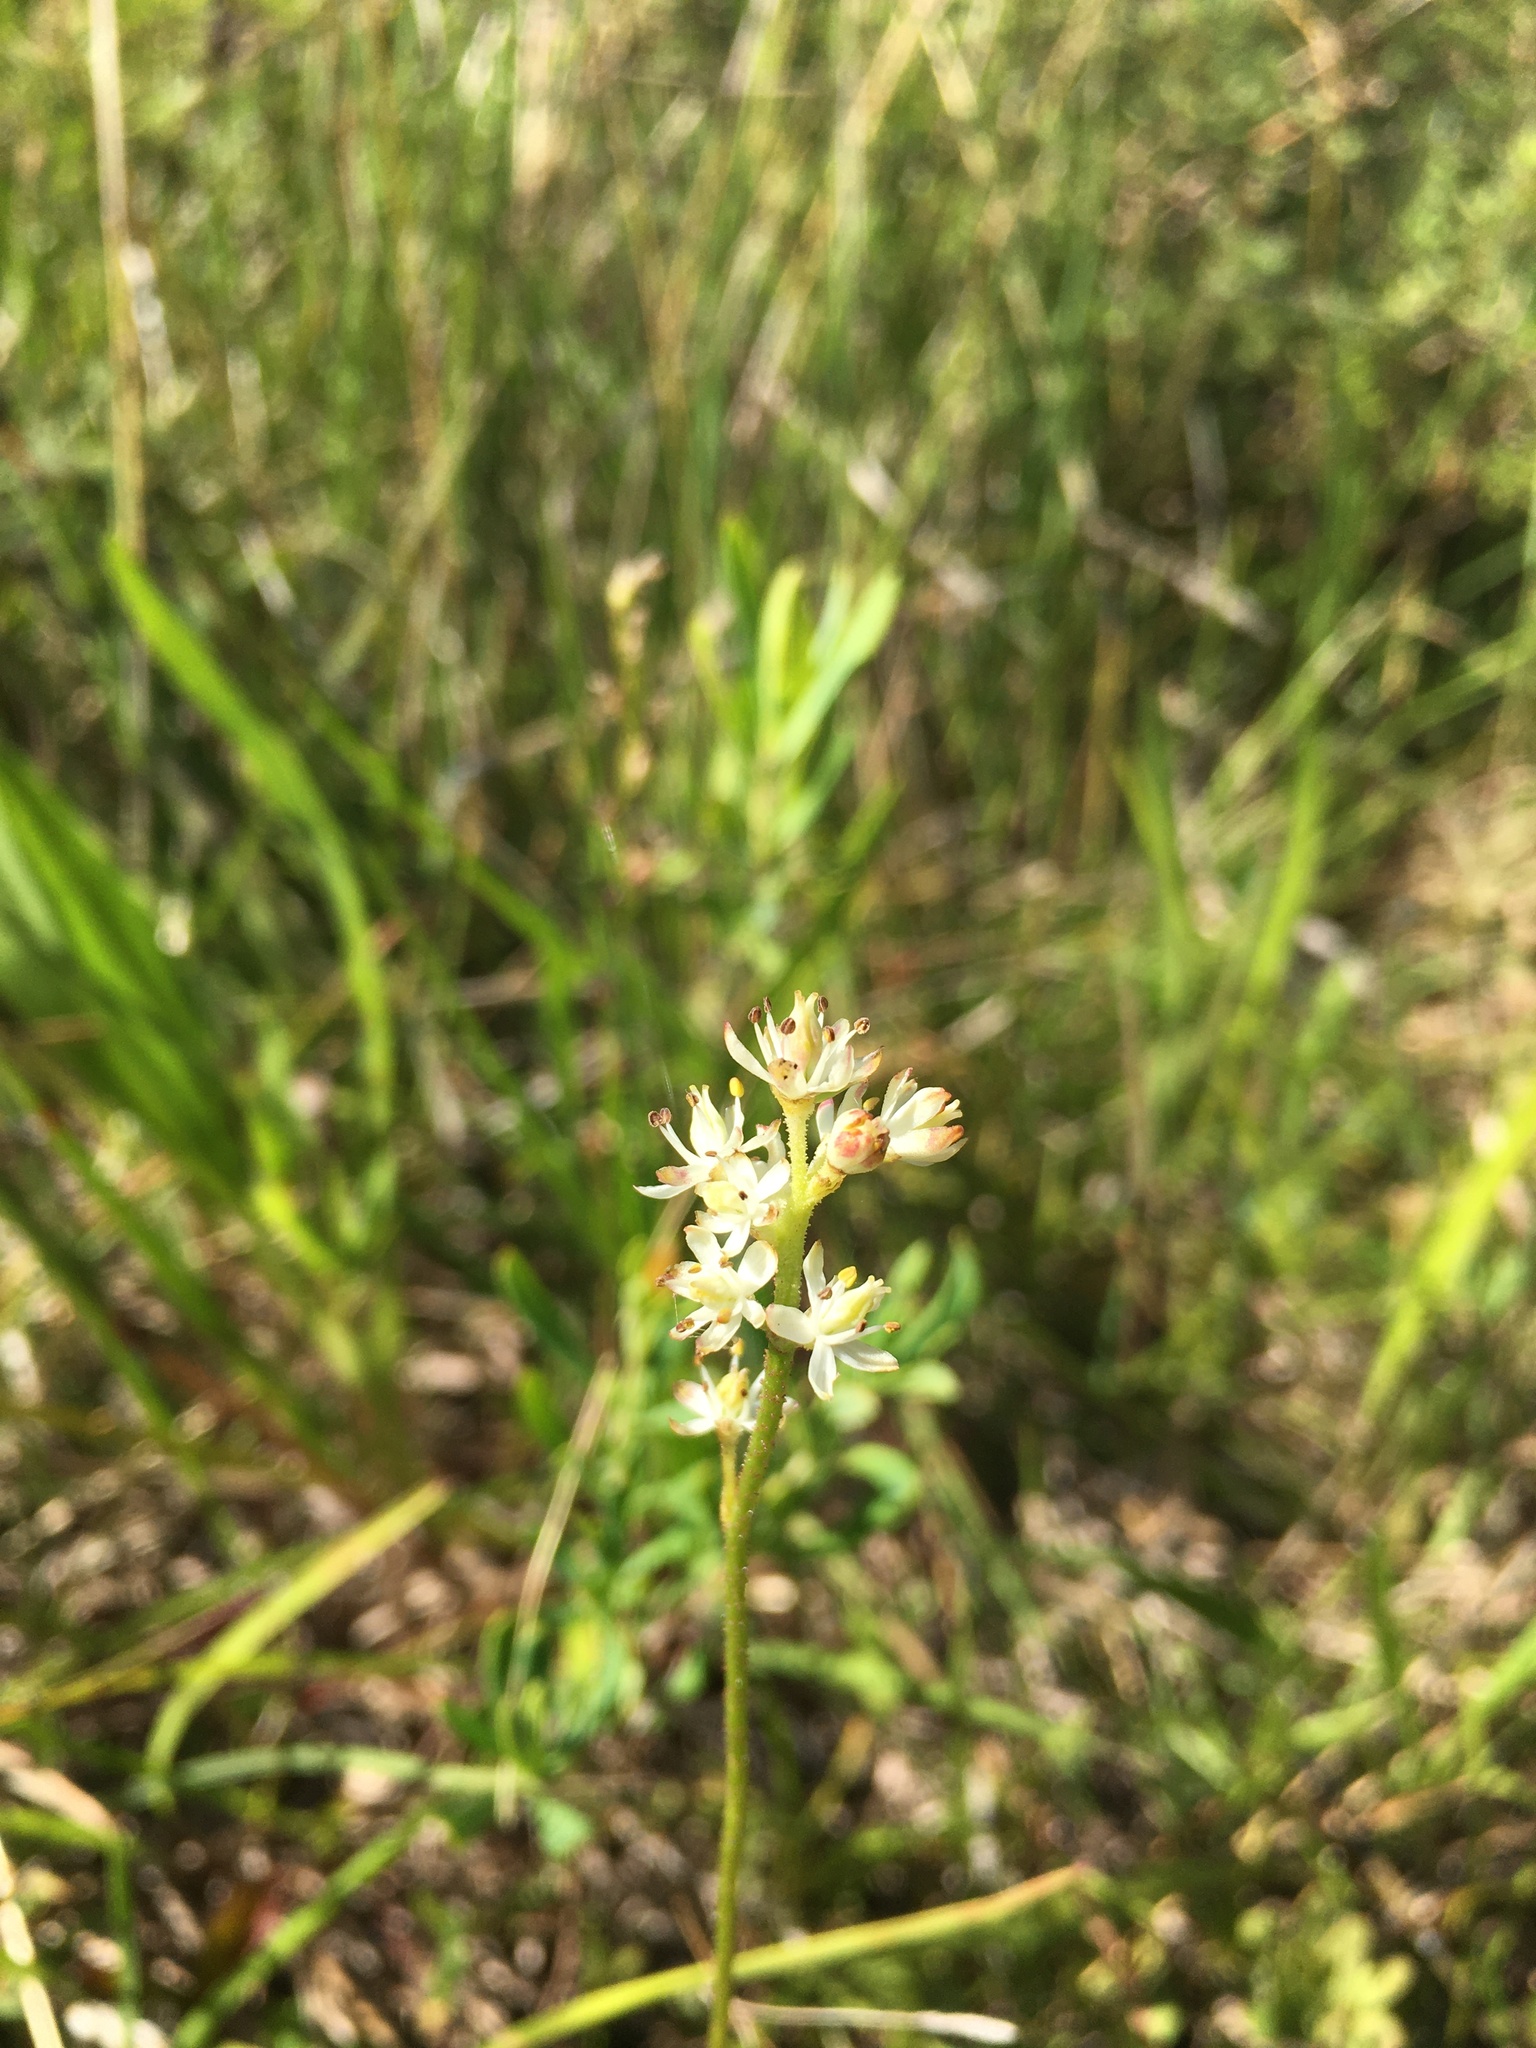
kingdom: Plantae
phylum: Tracheophyta
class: Liliopsida
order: Alismatales
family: Tofieldiaceae
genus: Triantha
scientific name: Triantha glutinosa
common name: Glutinous tofieldia
